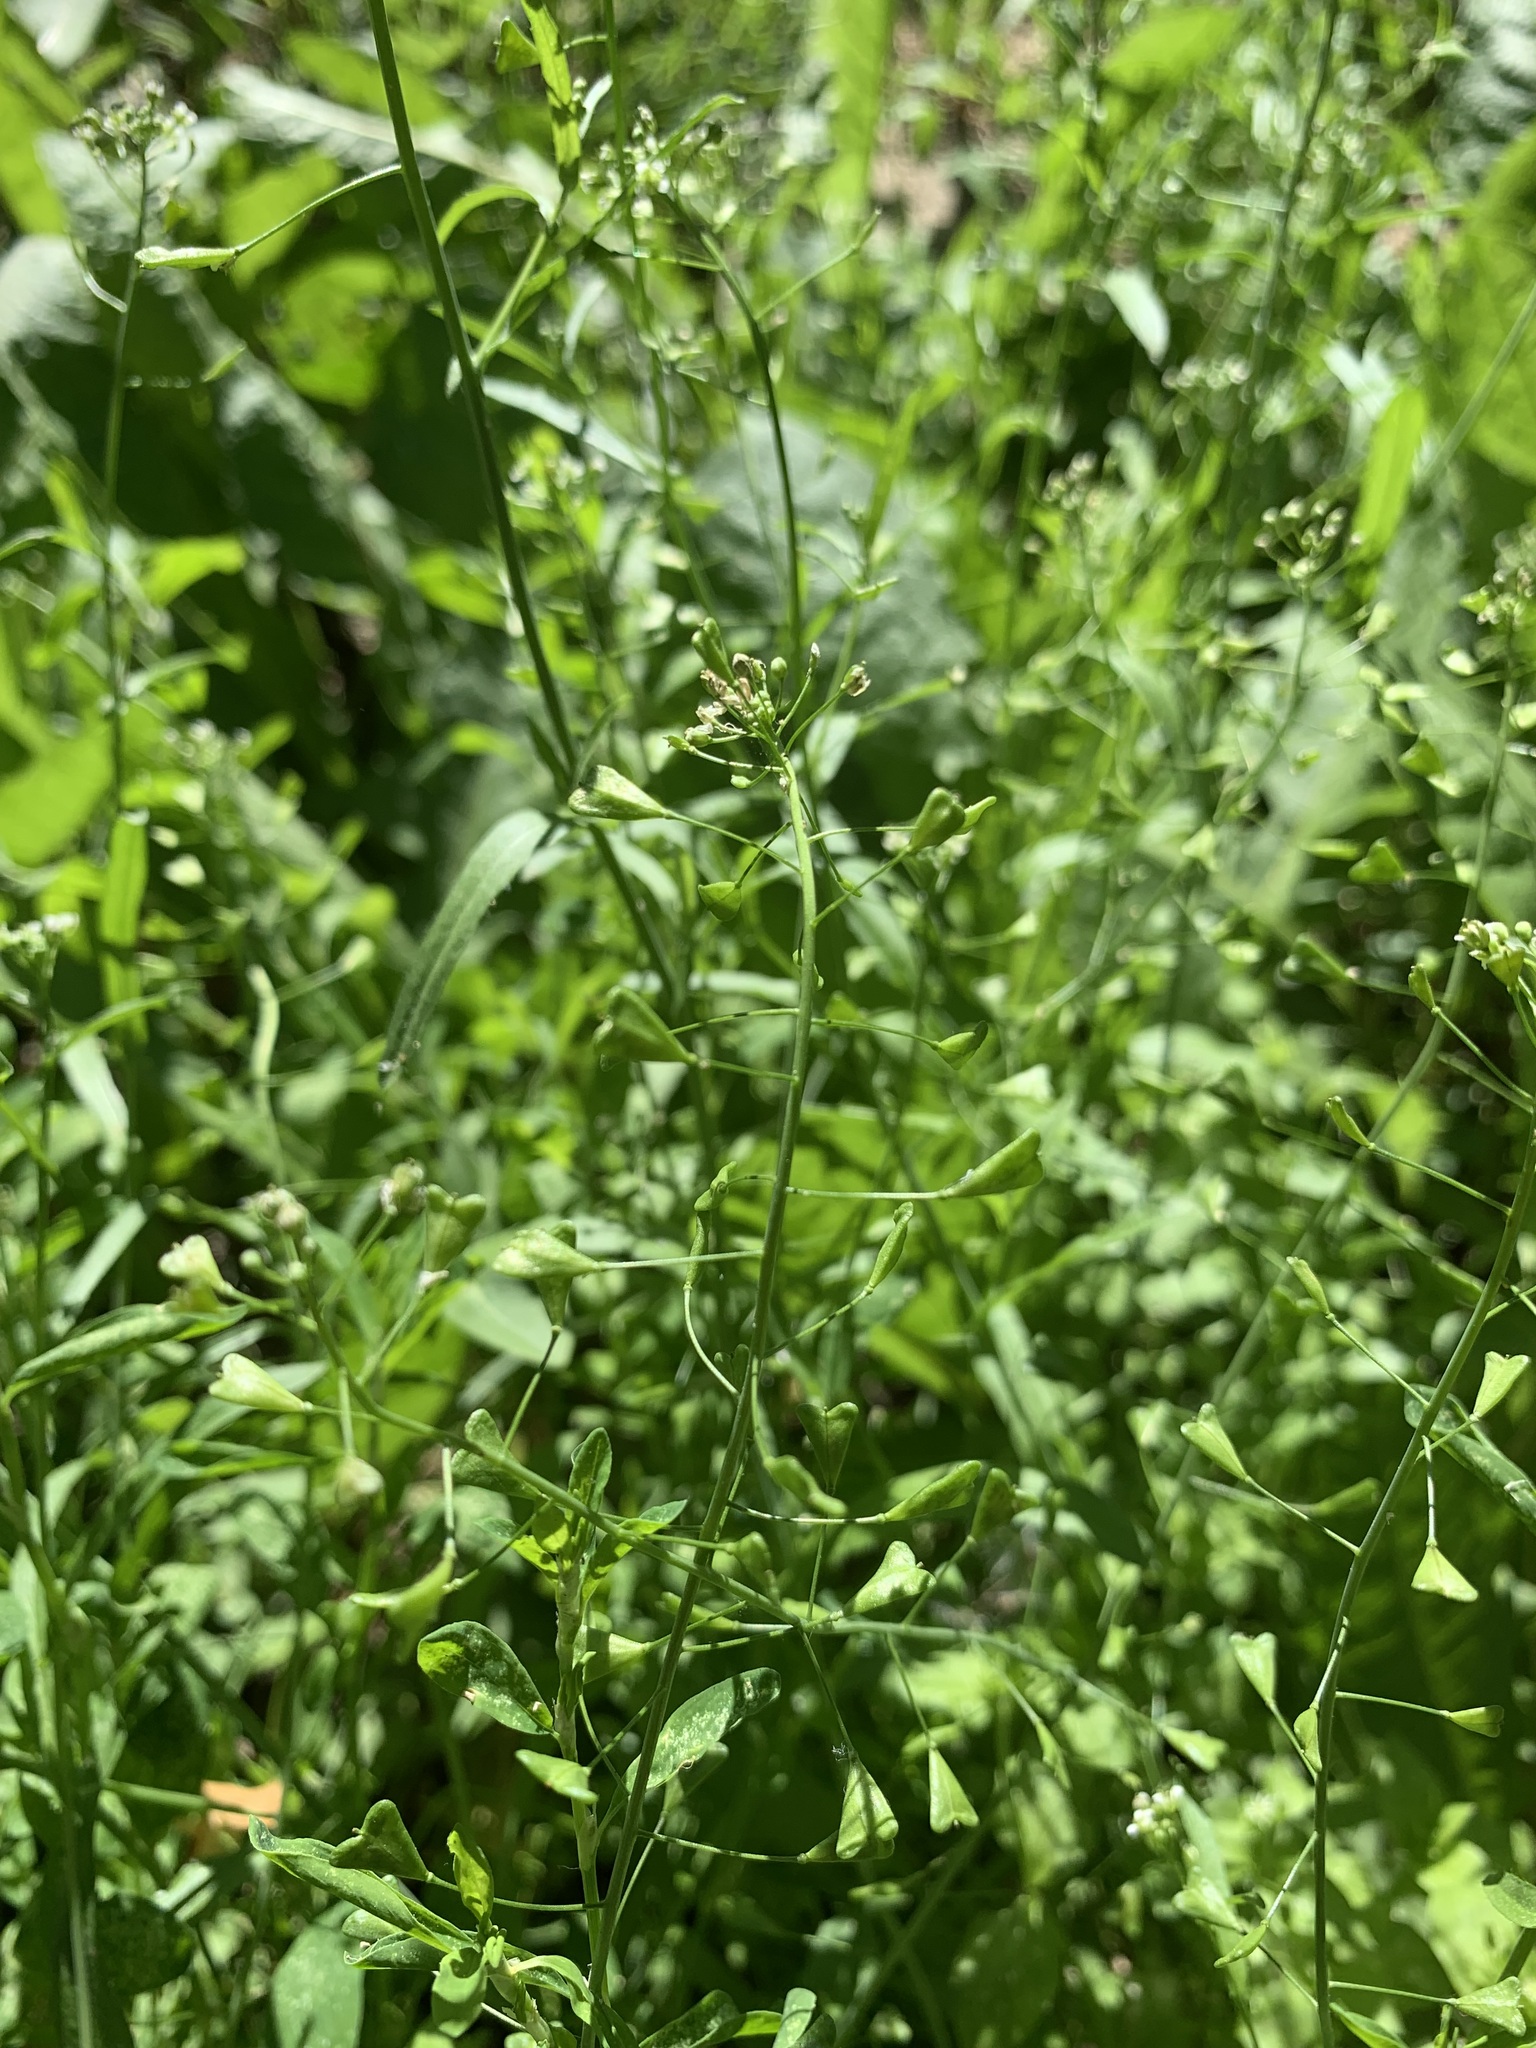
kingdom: Plantae
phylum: Tracheophyta
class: Magnoliopsida
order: Brassicales
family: Brassicaceae
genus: Capsella
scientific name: Capsella bursa-pastoris
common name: Shepherd's purse
